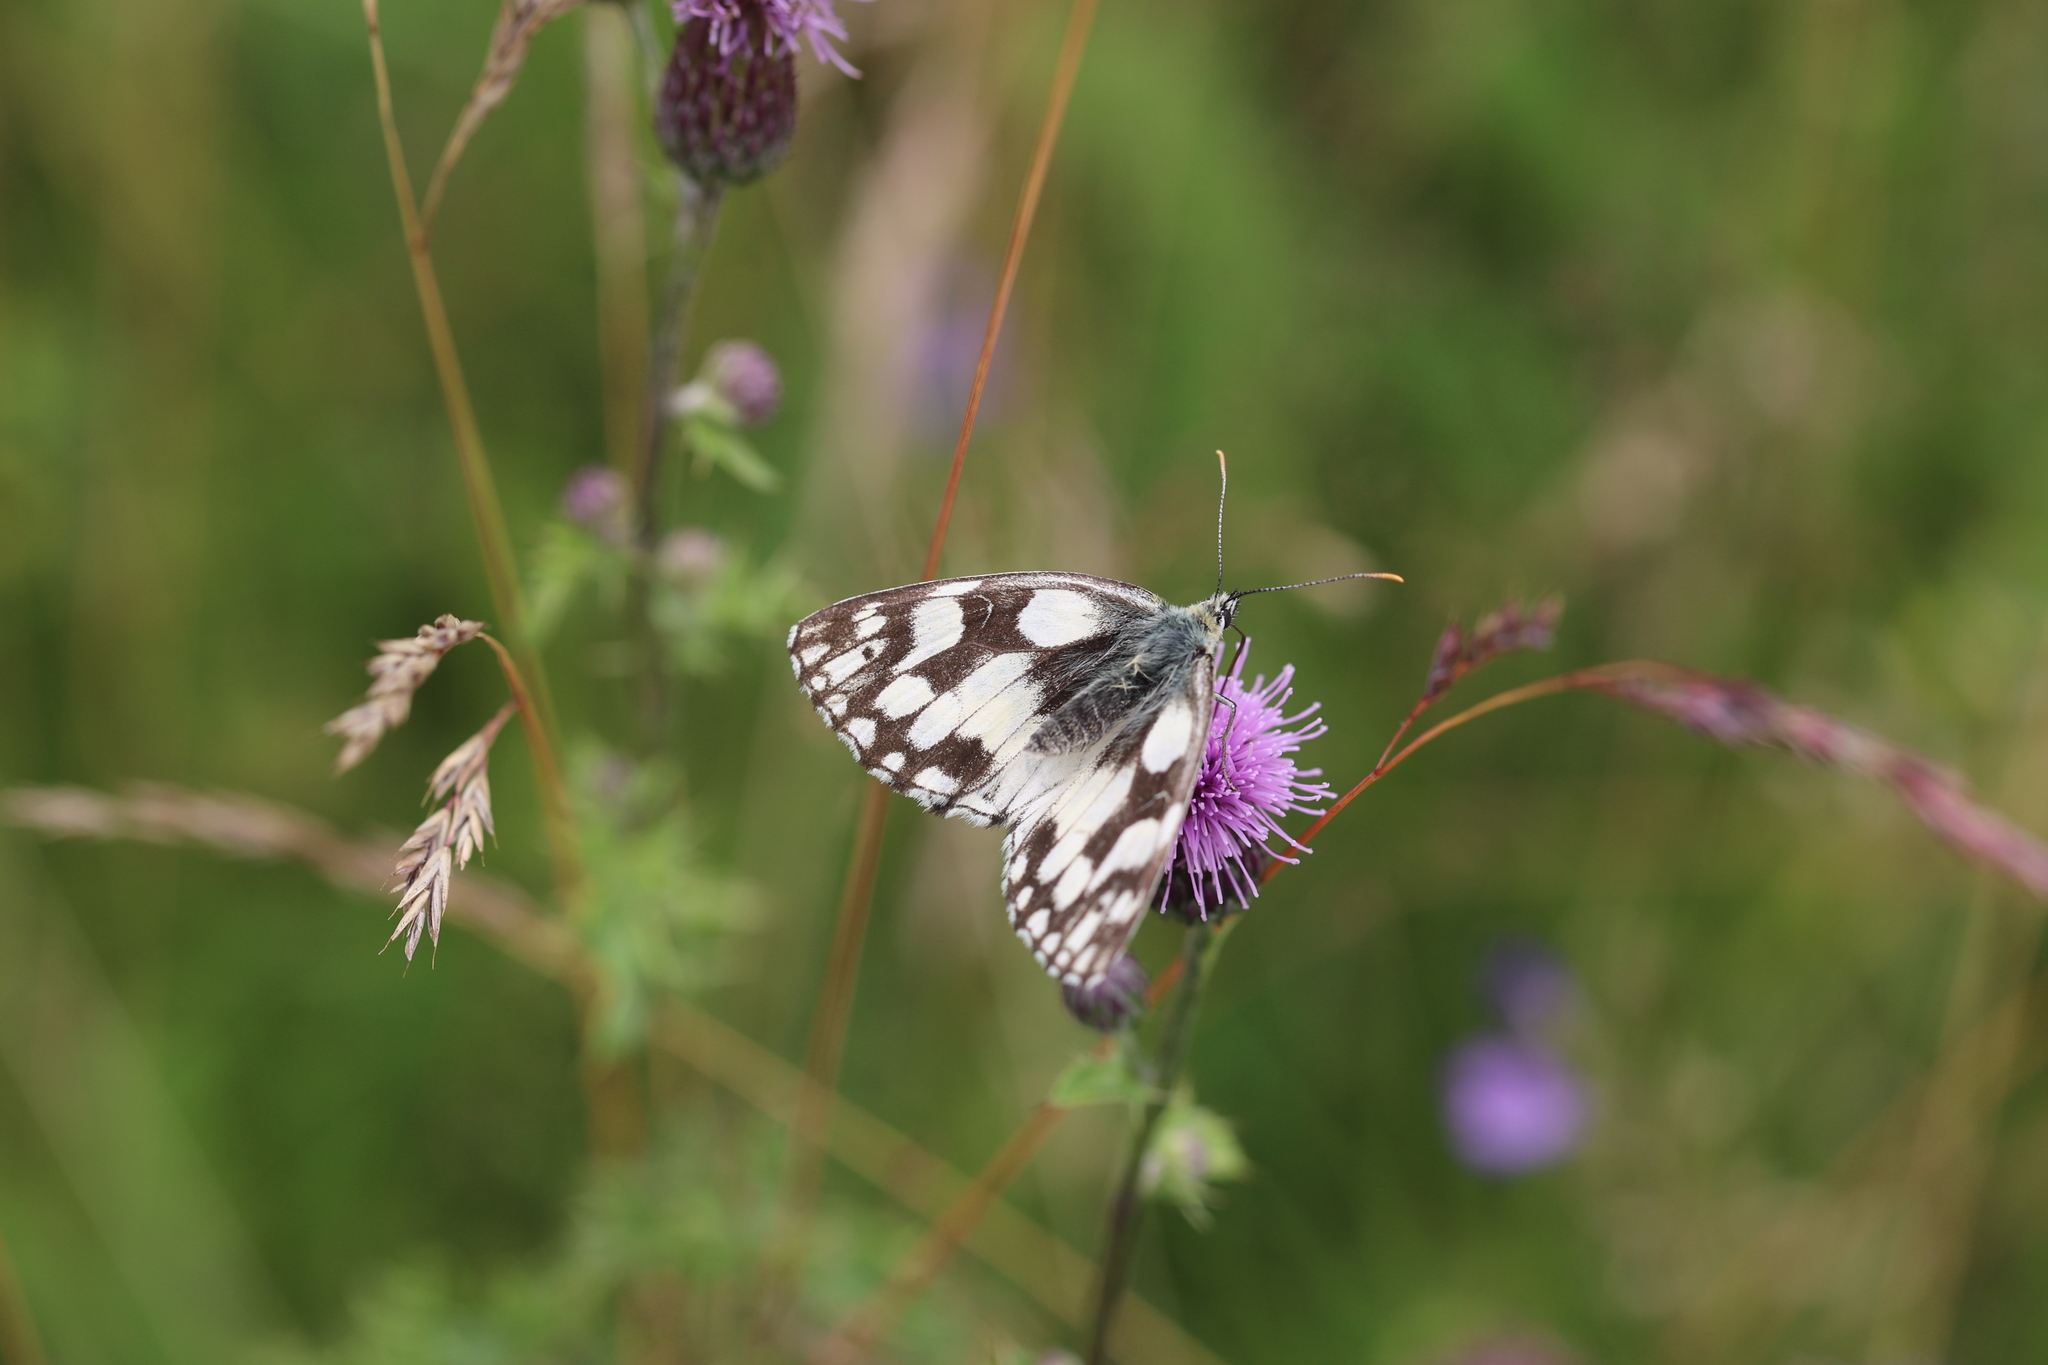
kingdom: Animalia
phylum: Arthropoda
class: Insecta
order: Lepidoptera
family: Nymphalidae
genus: Melanargia
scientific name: Melanargia galathea
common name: Marbled white
